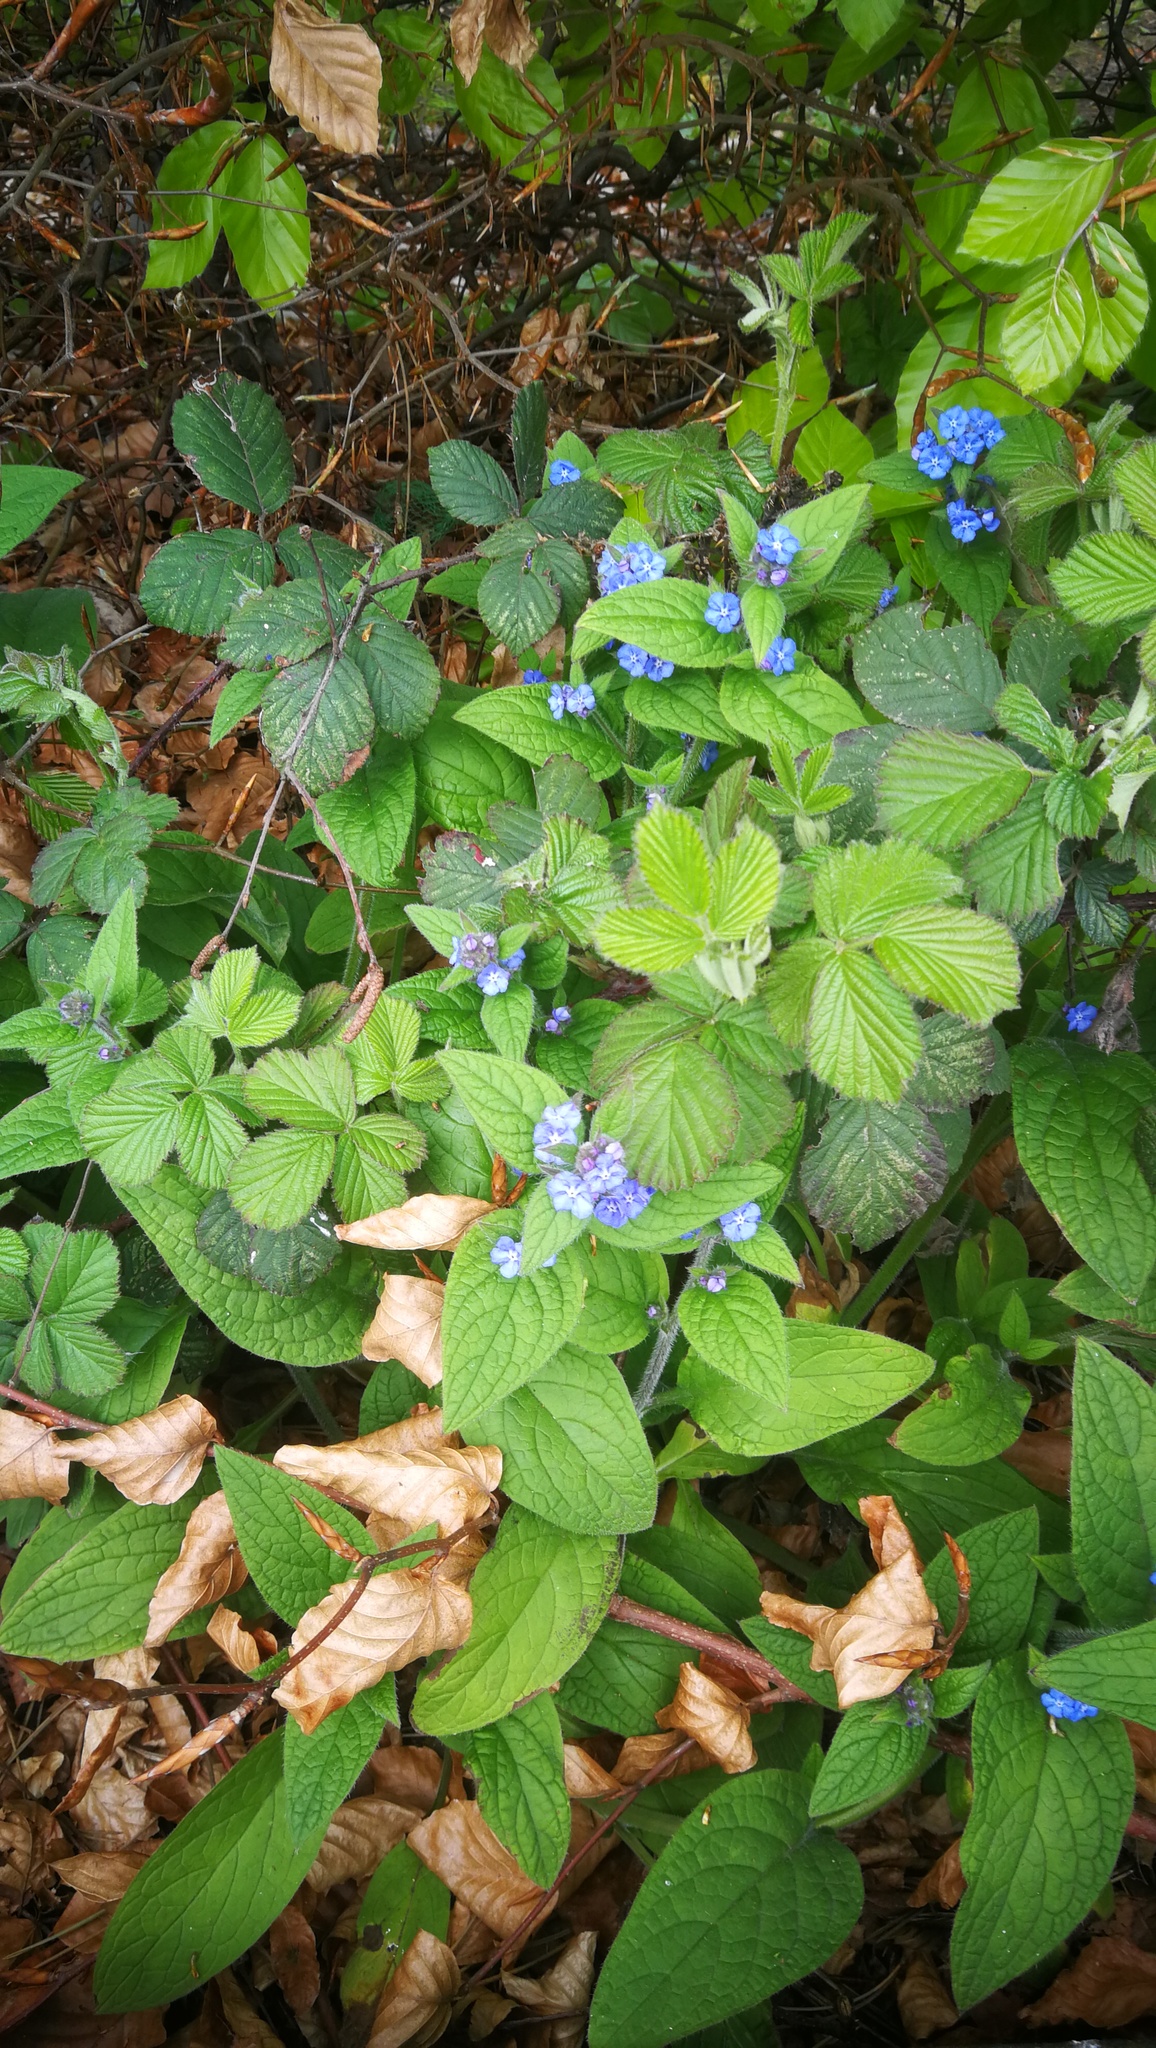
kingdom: Plantae
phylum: Tracheophyta
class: Magnoliopsida
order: Boraginales
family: Boraginaceae
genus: Pentaglottis
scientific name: Pentaglottis sempervirens
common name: Green alkanet
